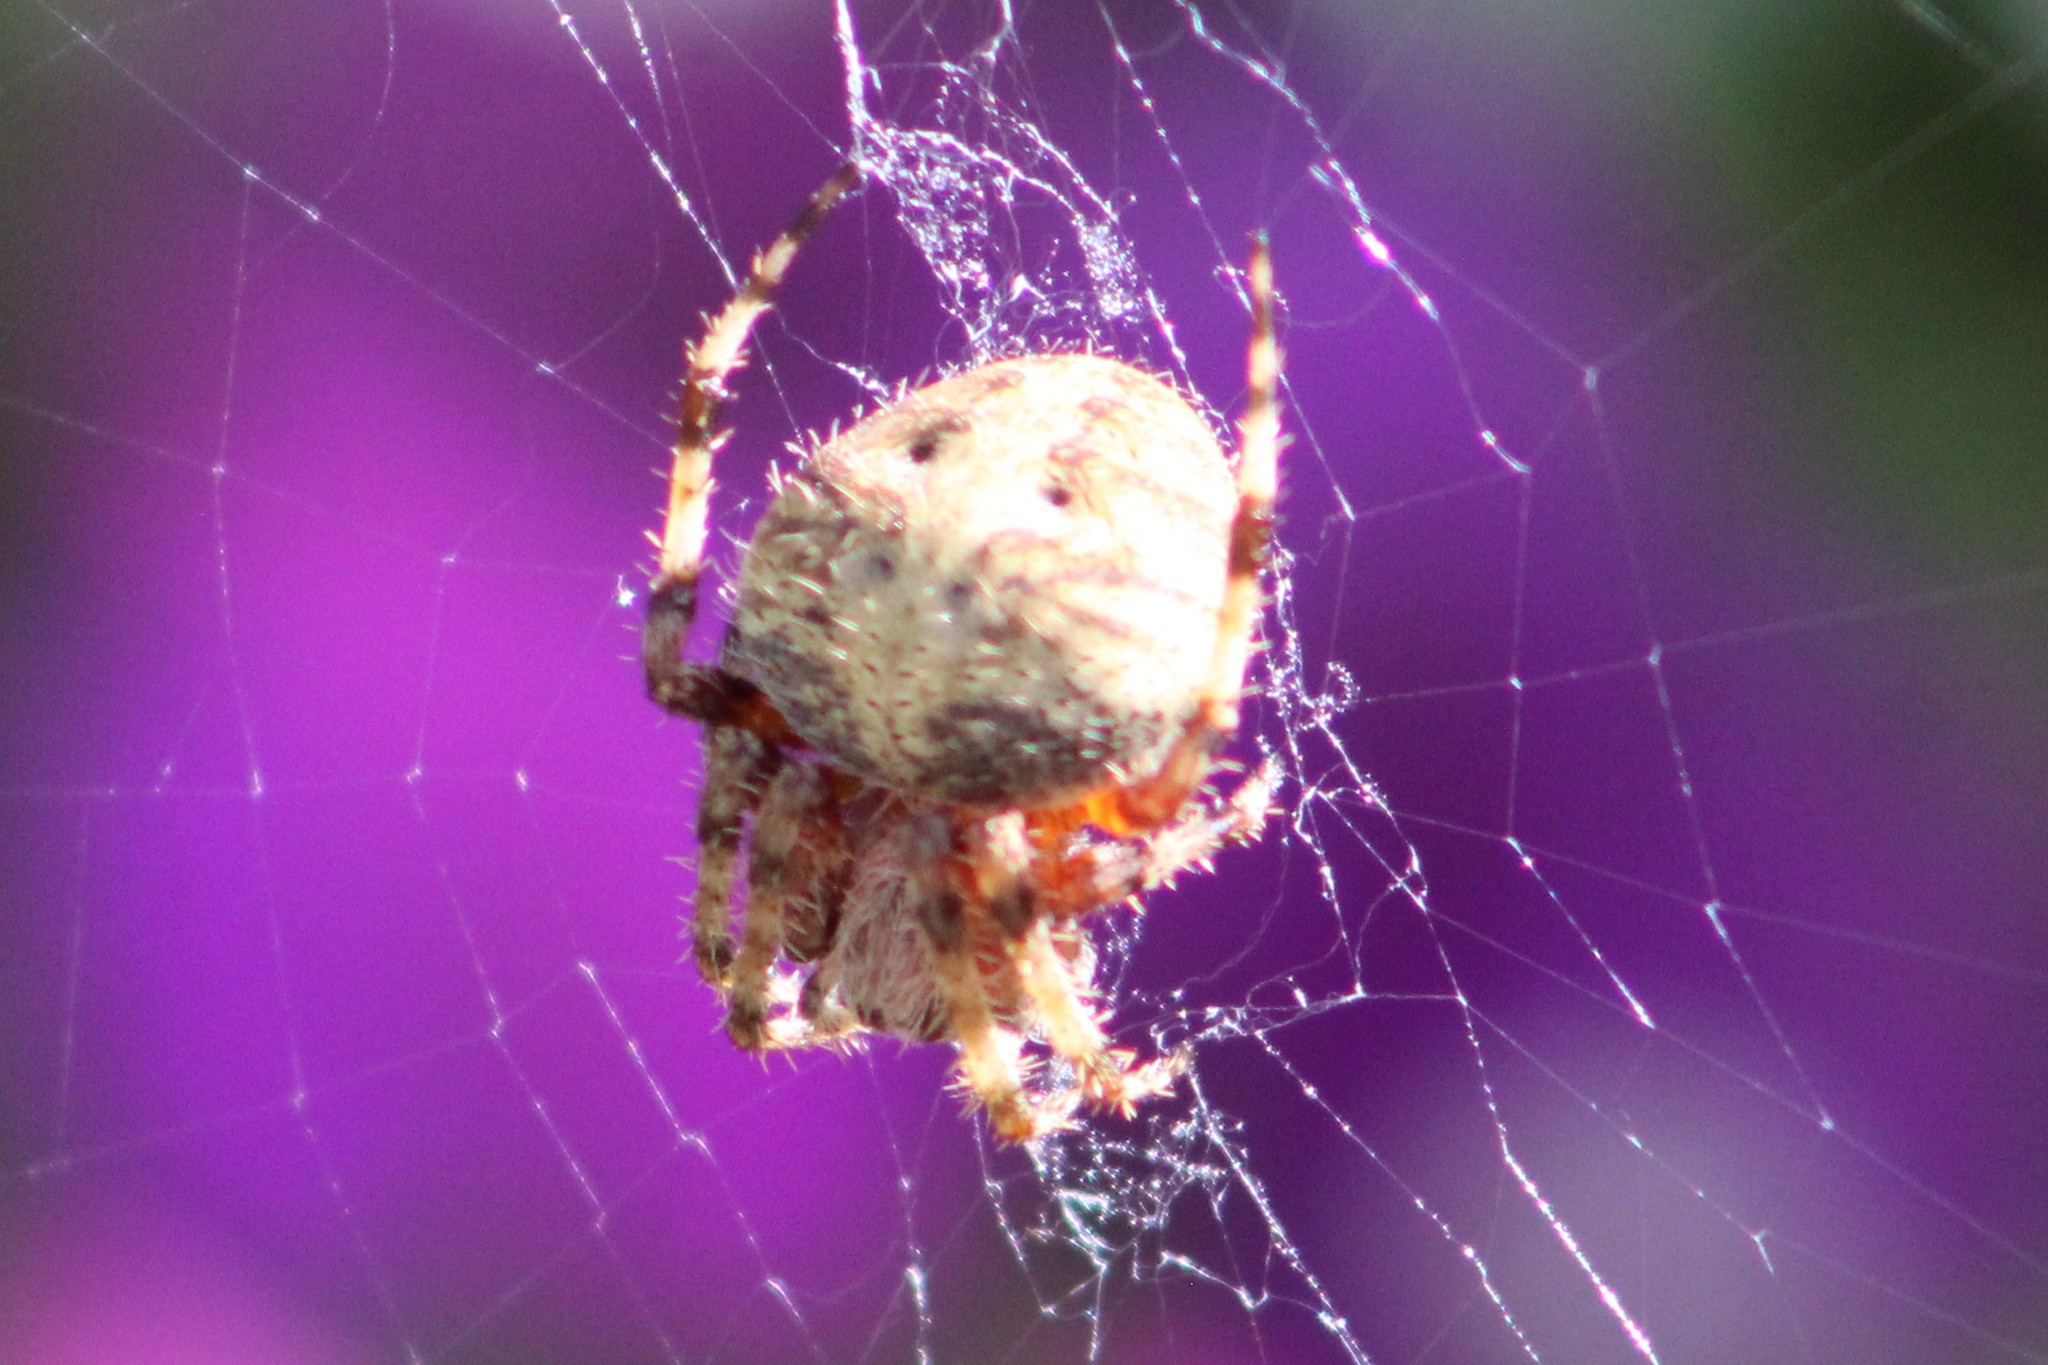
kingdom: Animalia
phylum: Arthropoda
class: Arachnida
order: Araneae
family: Araneidae
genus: Neoscona
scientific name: Neoscona crucifera
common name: Spotted orbweaver
